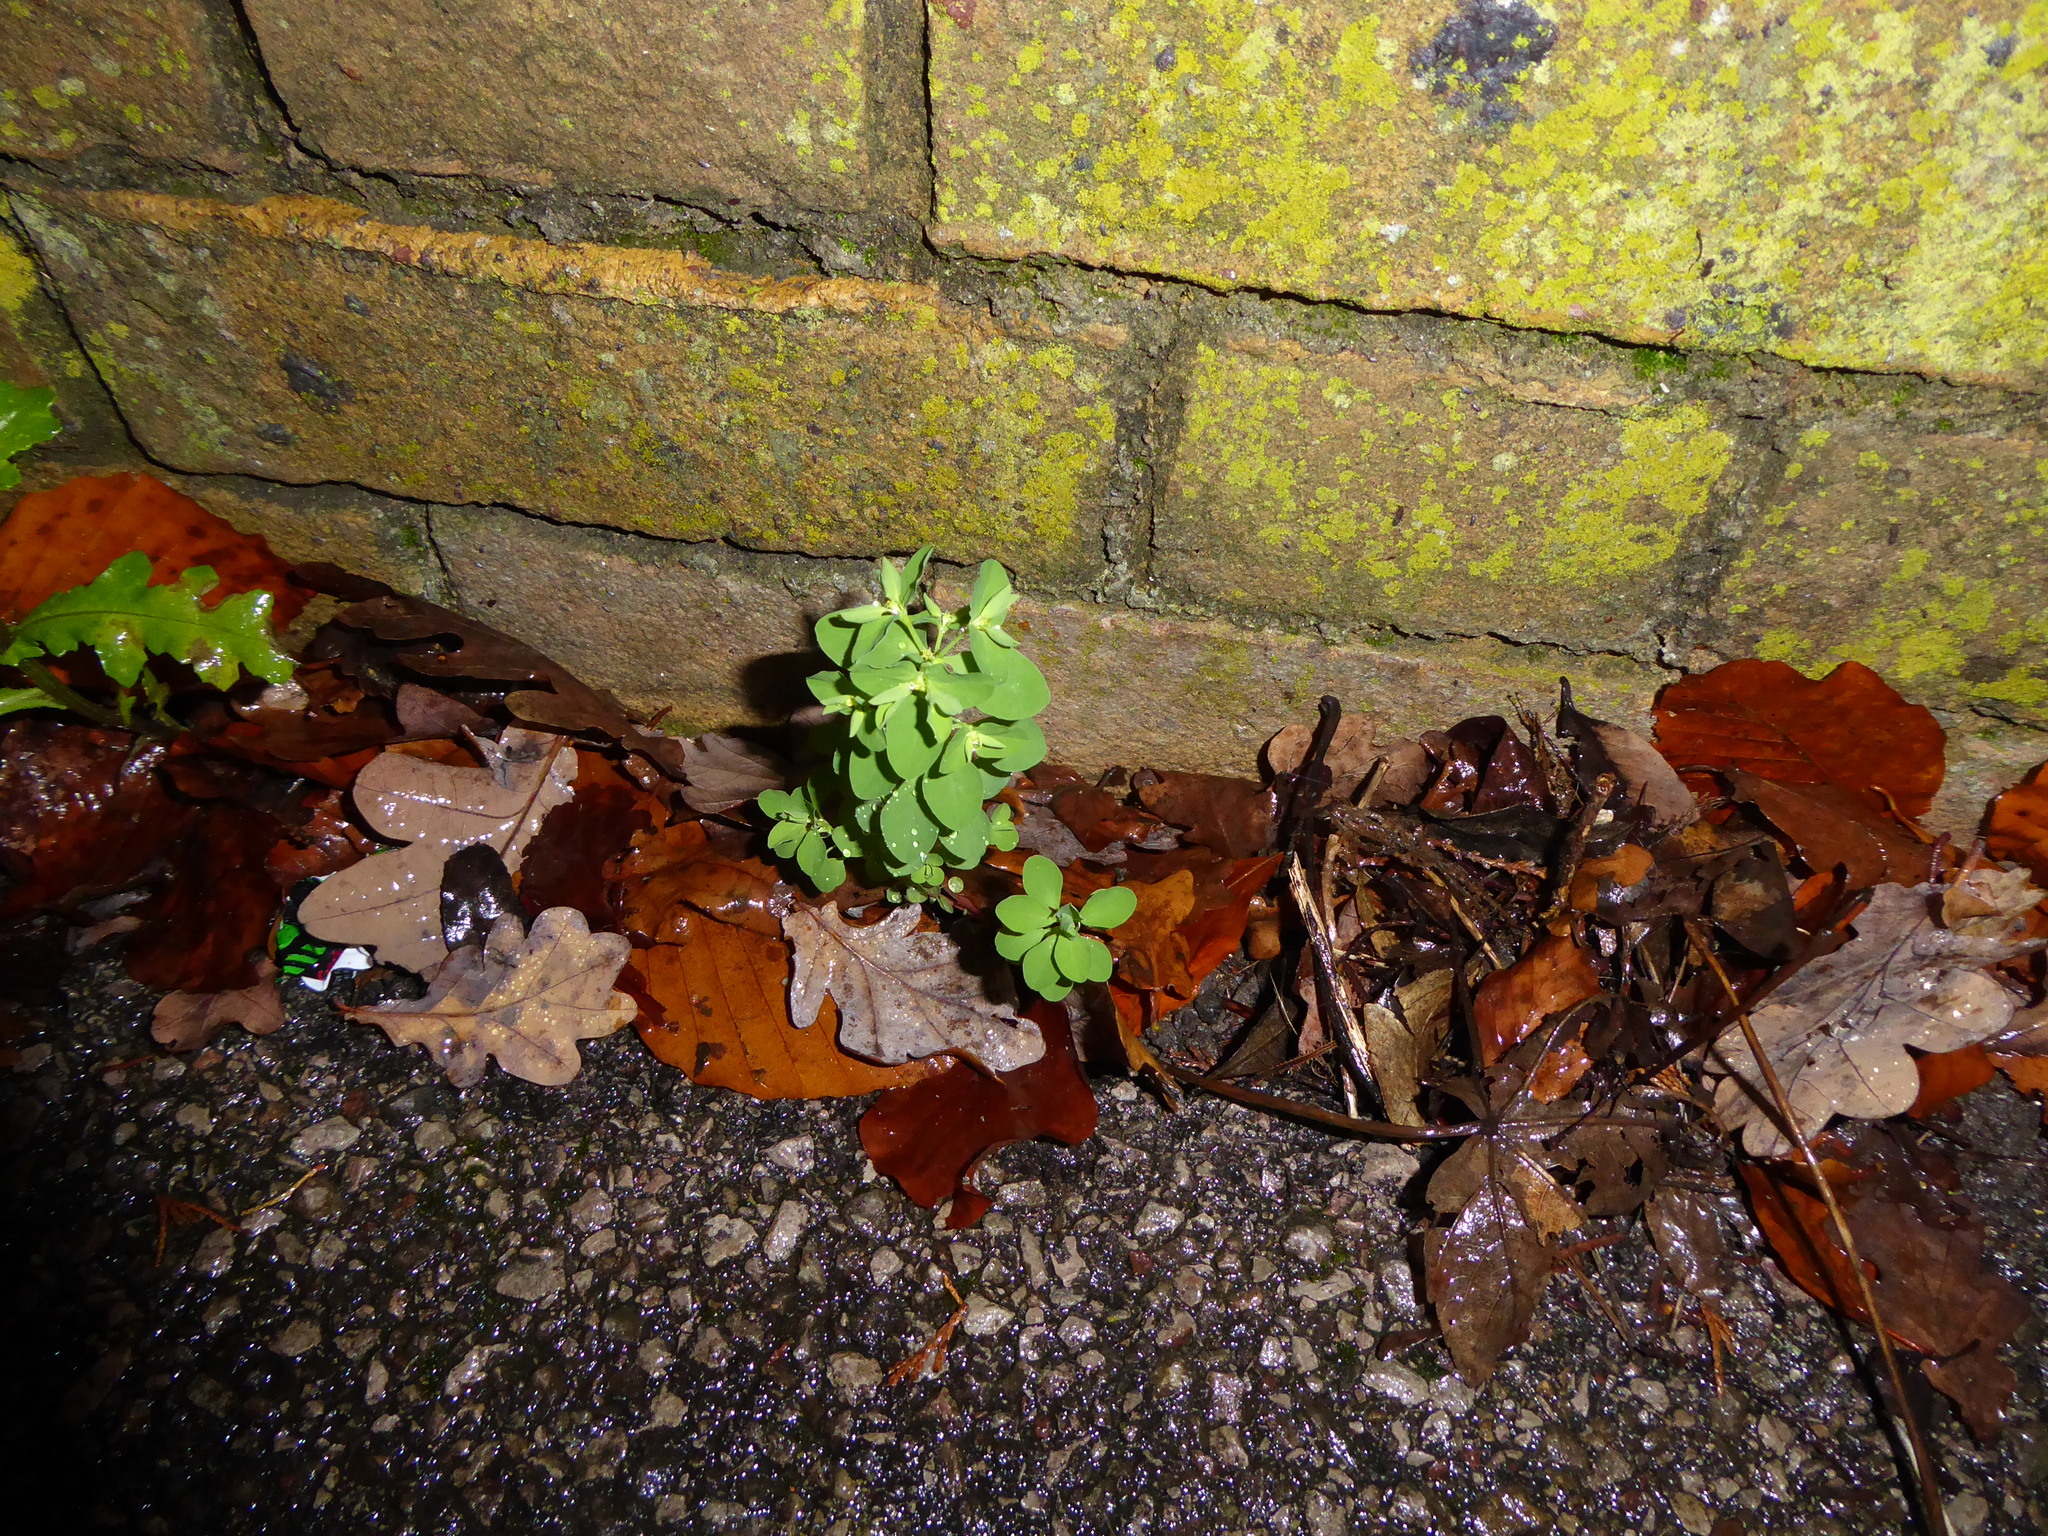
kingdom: Plantae
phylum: Tracheophyta
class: Magnoliopsida
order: Malpighiales
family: Euphorbiaceae
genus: Euphorbia
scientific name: Euphorbia peplus
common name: Petty spurge
